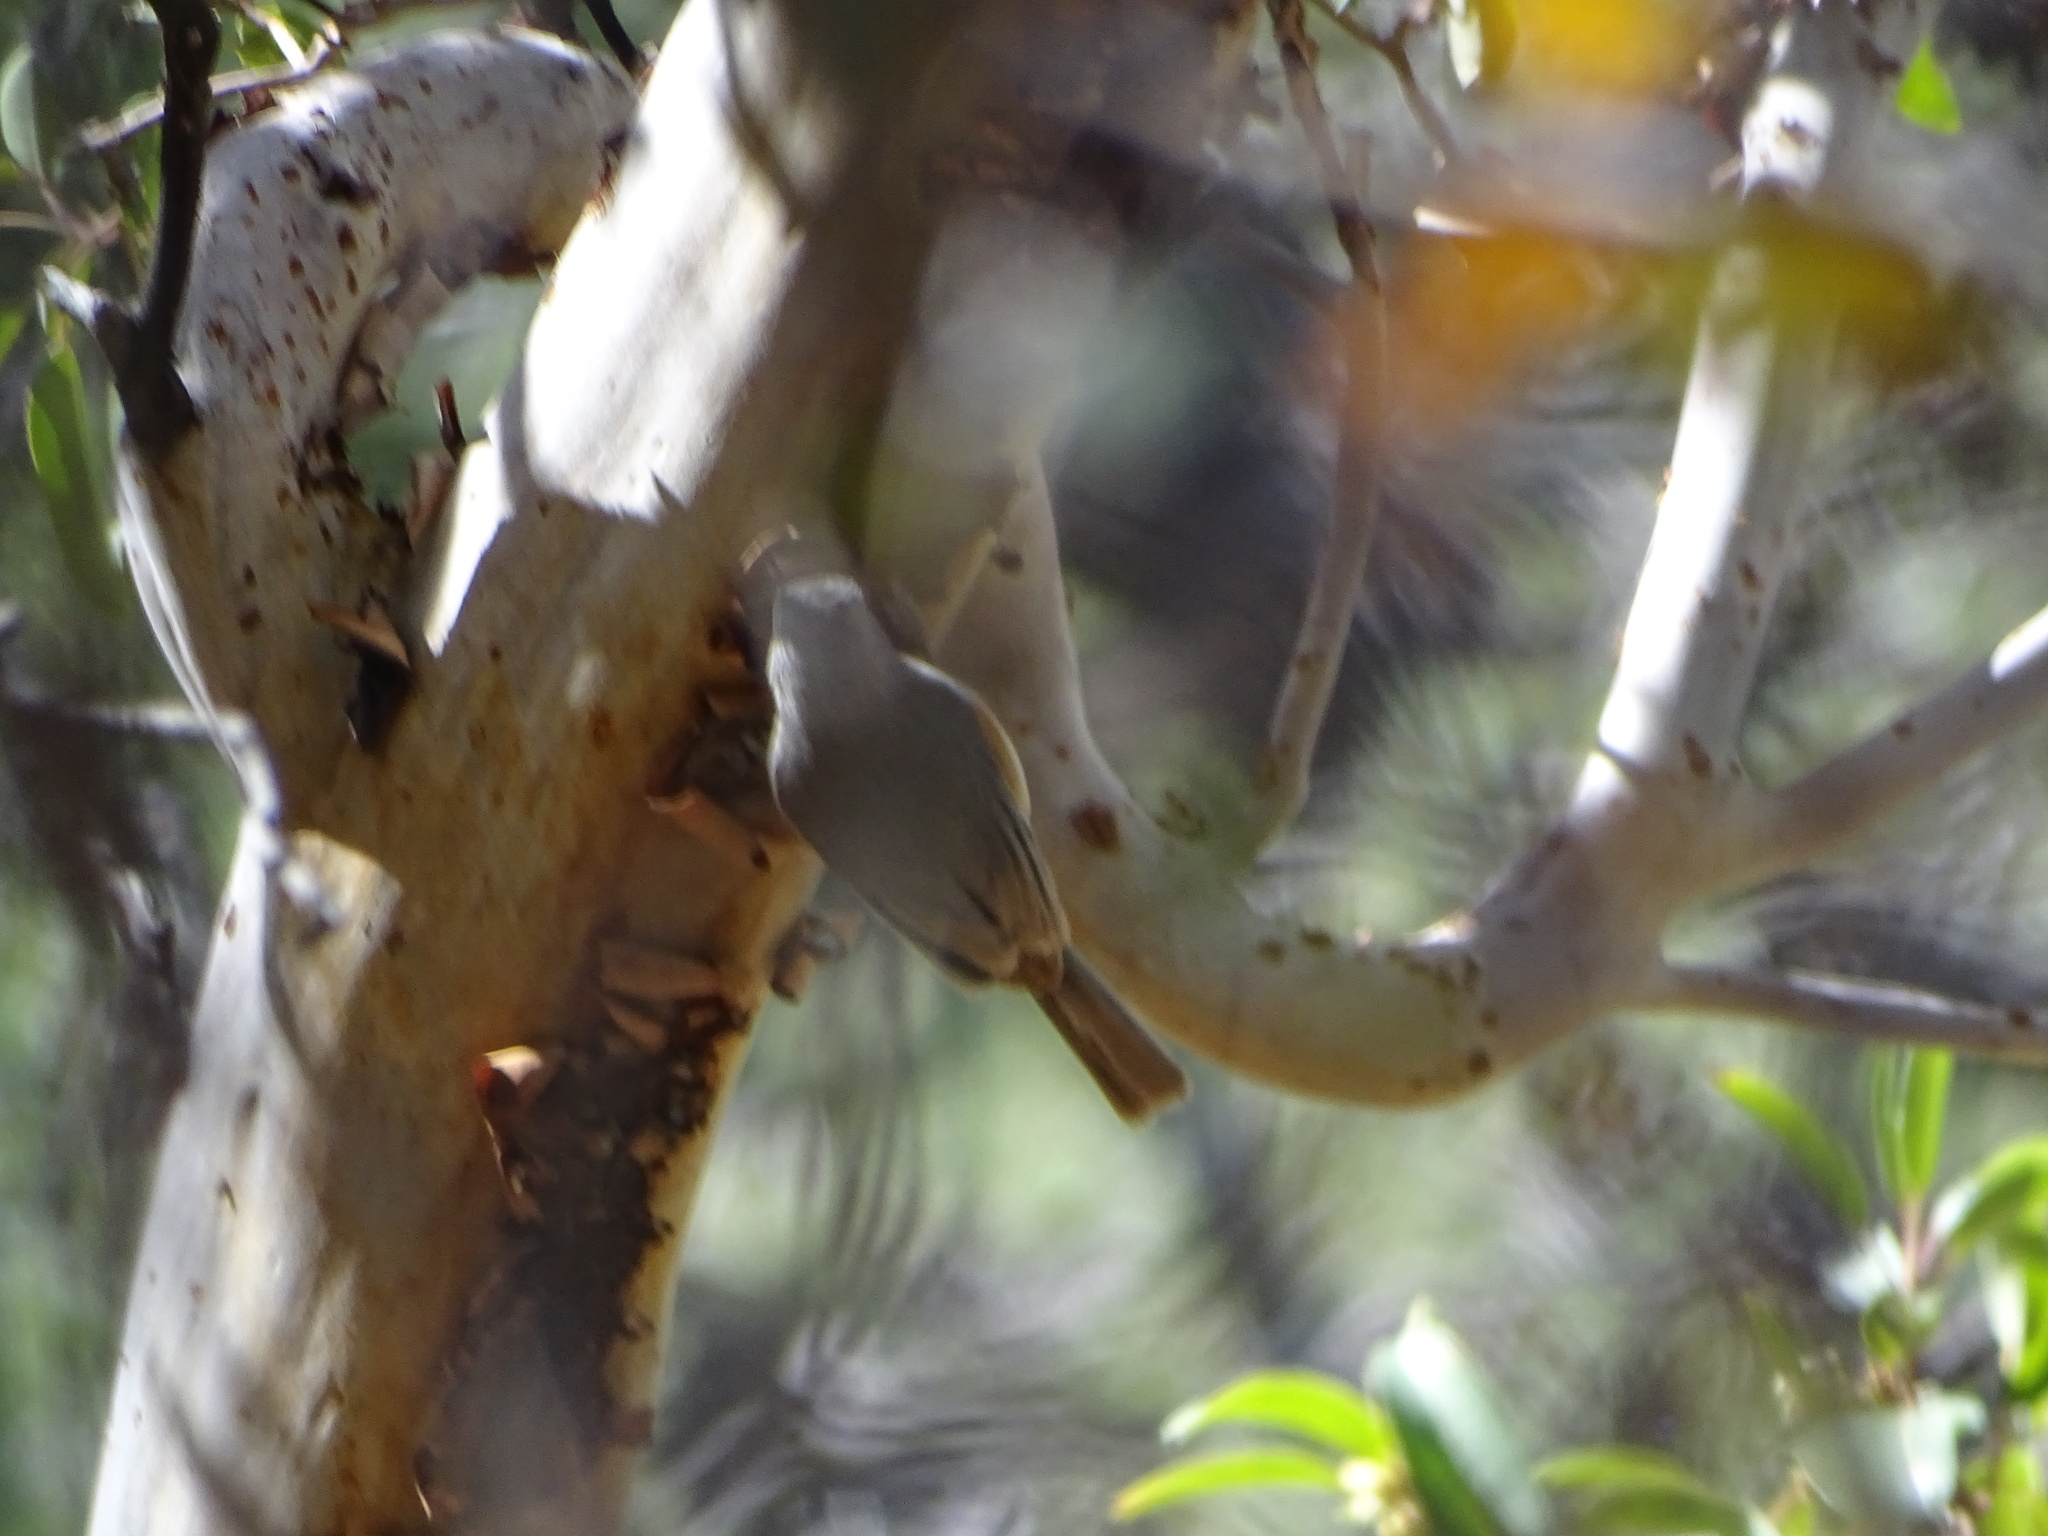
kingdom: Animalia
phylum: Chordata
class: Aves
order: Passeriformes
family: Paridae
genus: Baeolophus
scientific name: Baeolophus atricristatus
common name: Black-crested titmouse
